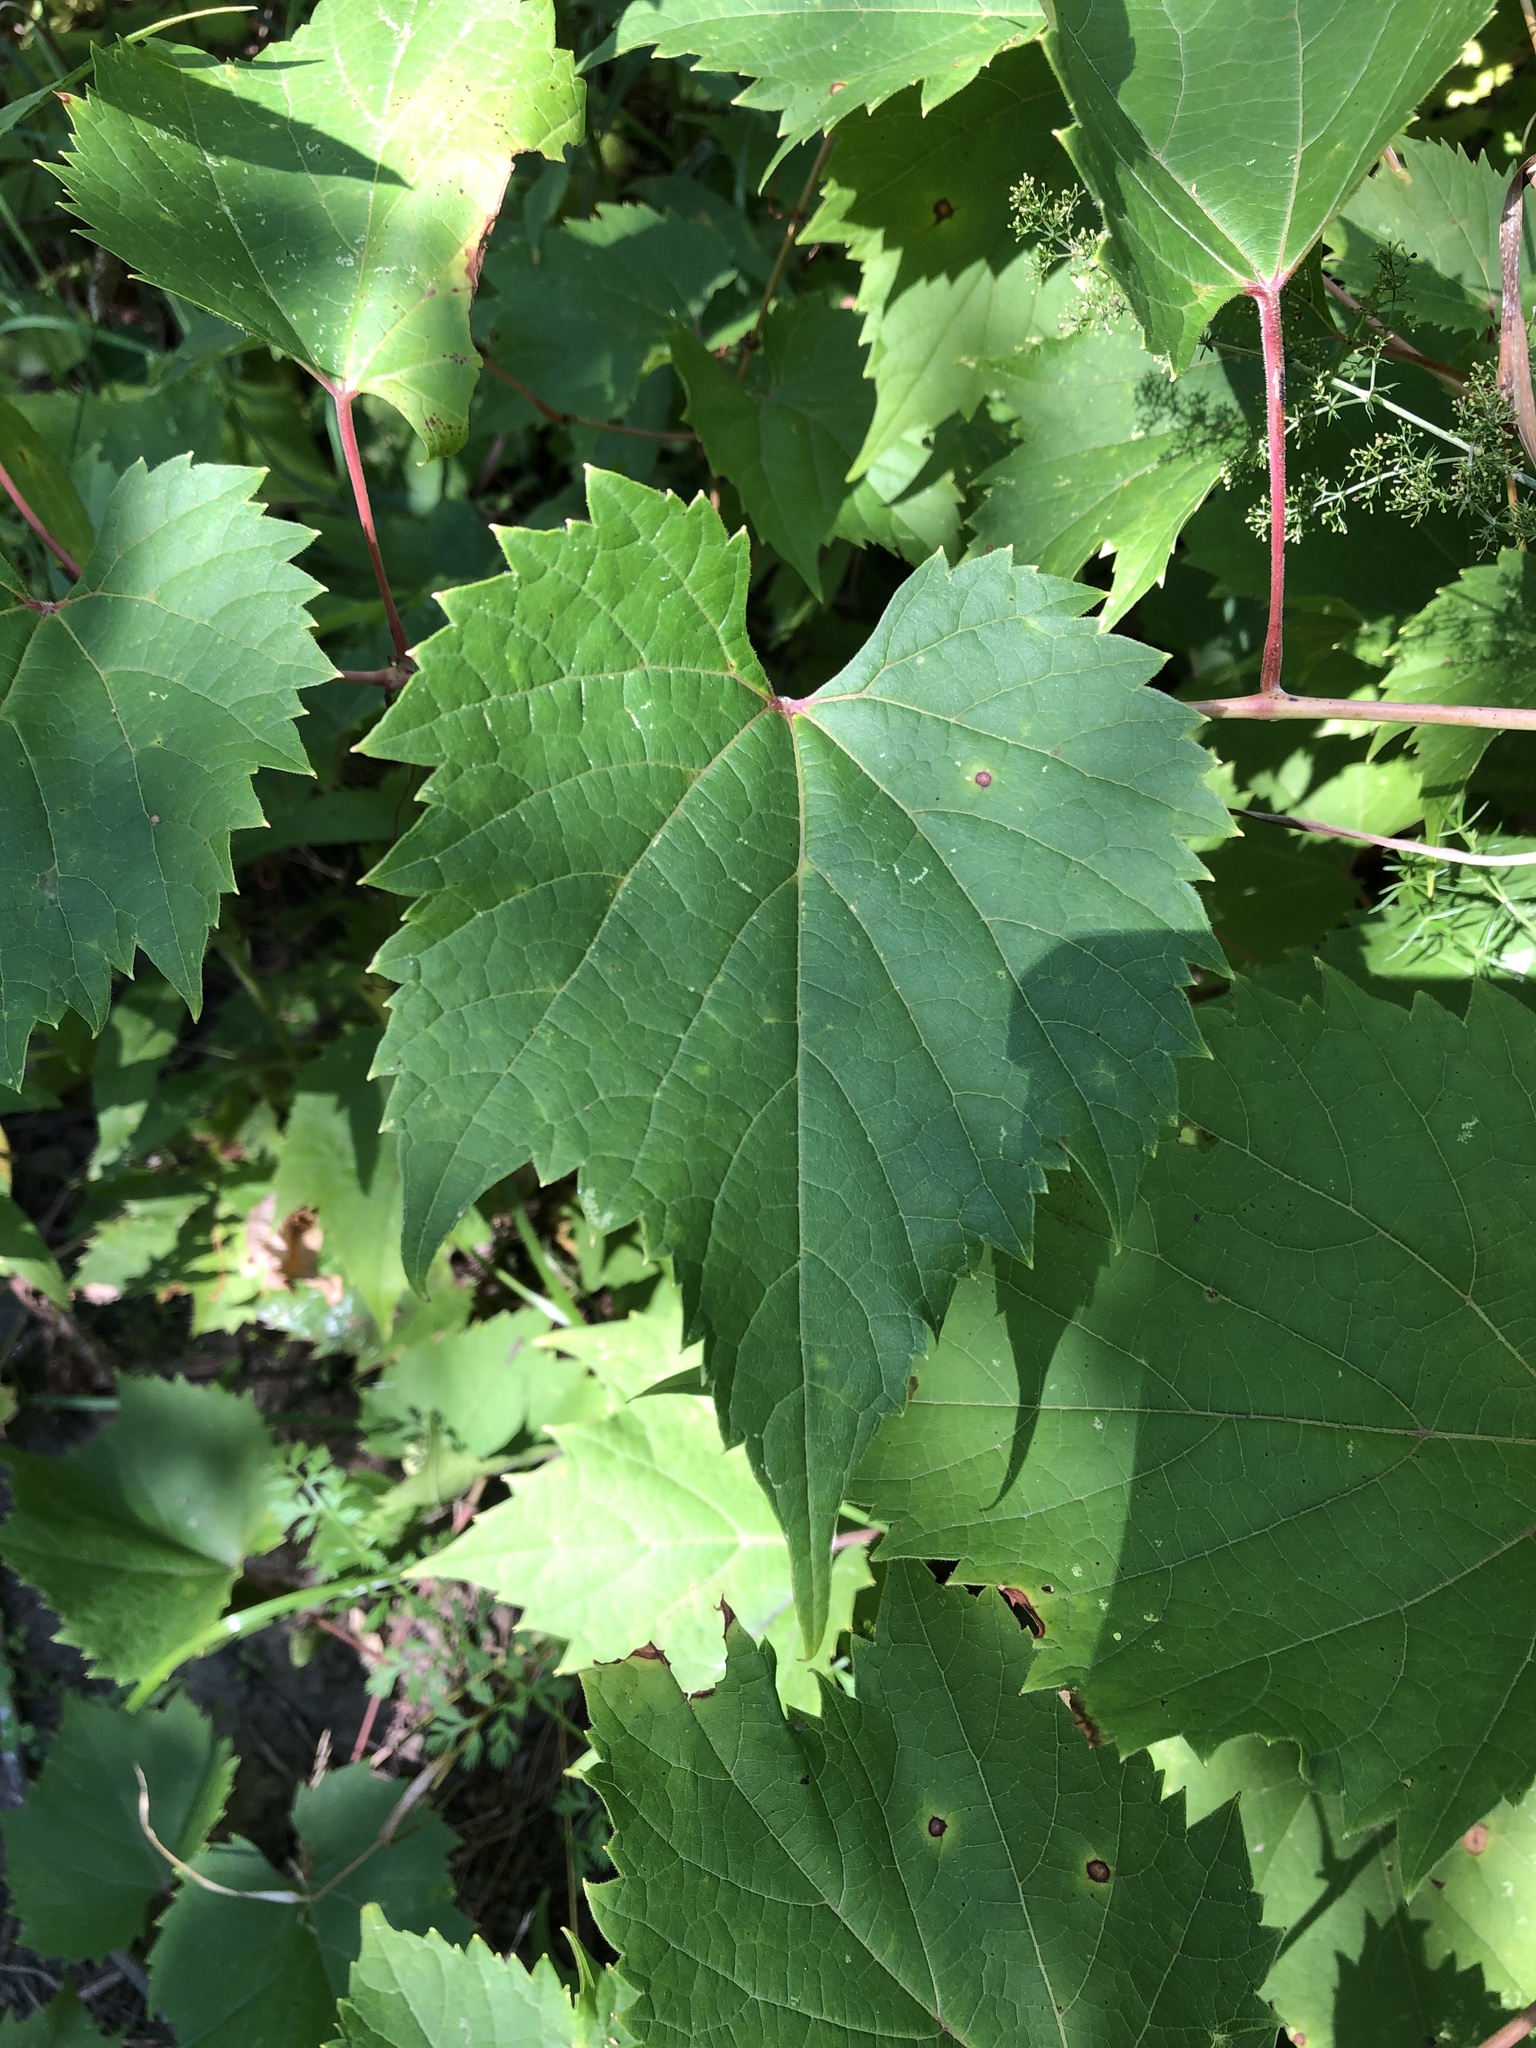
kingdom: Plantae
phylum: Tracheophyta
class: Magnoliopsida
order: Vitales
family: Vitaceae
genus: Vitis
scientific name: Vitis riparia
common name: Frost grape
